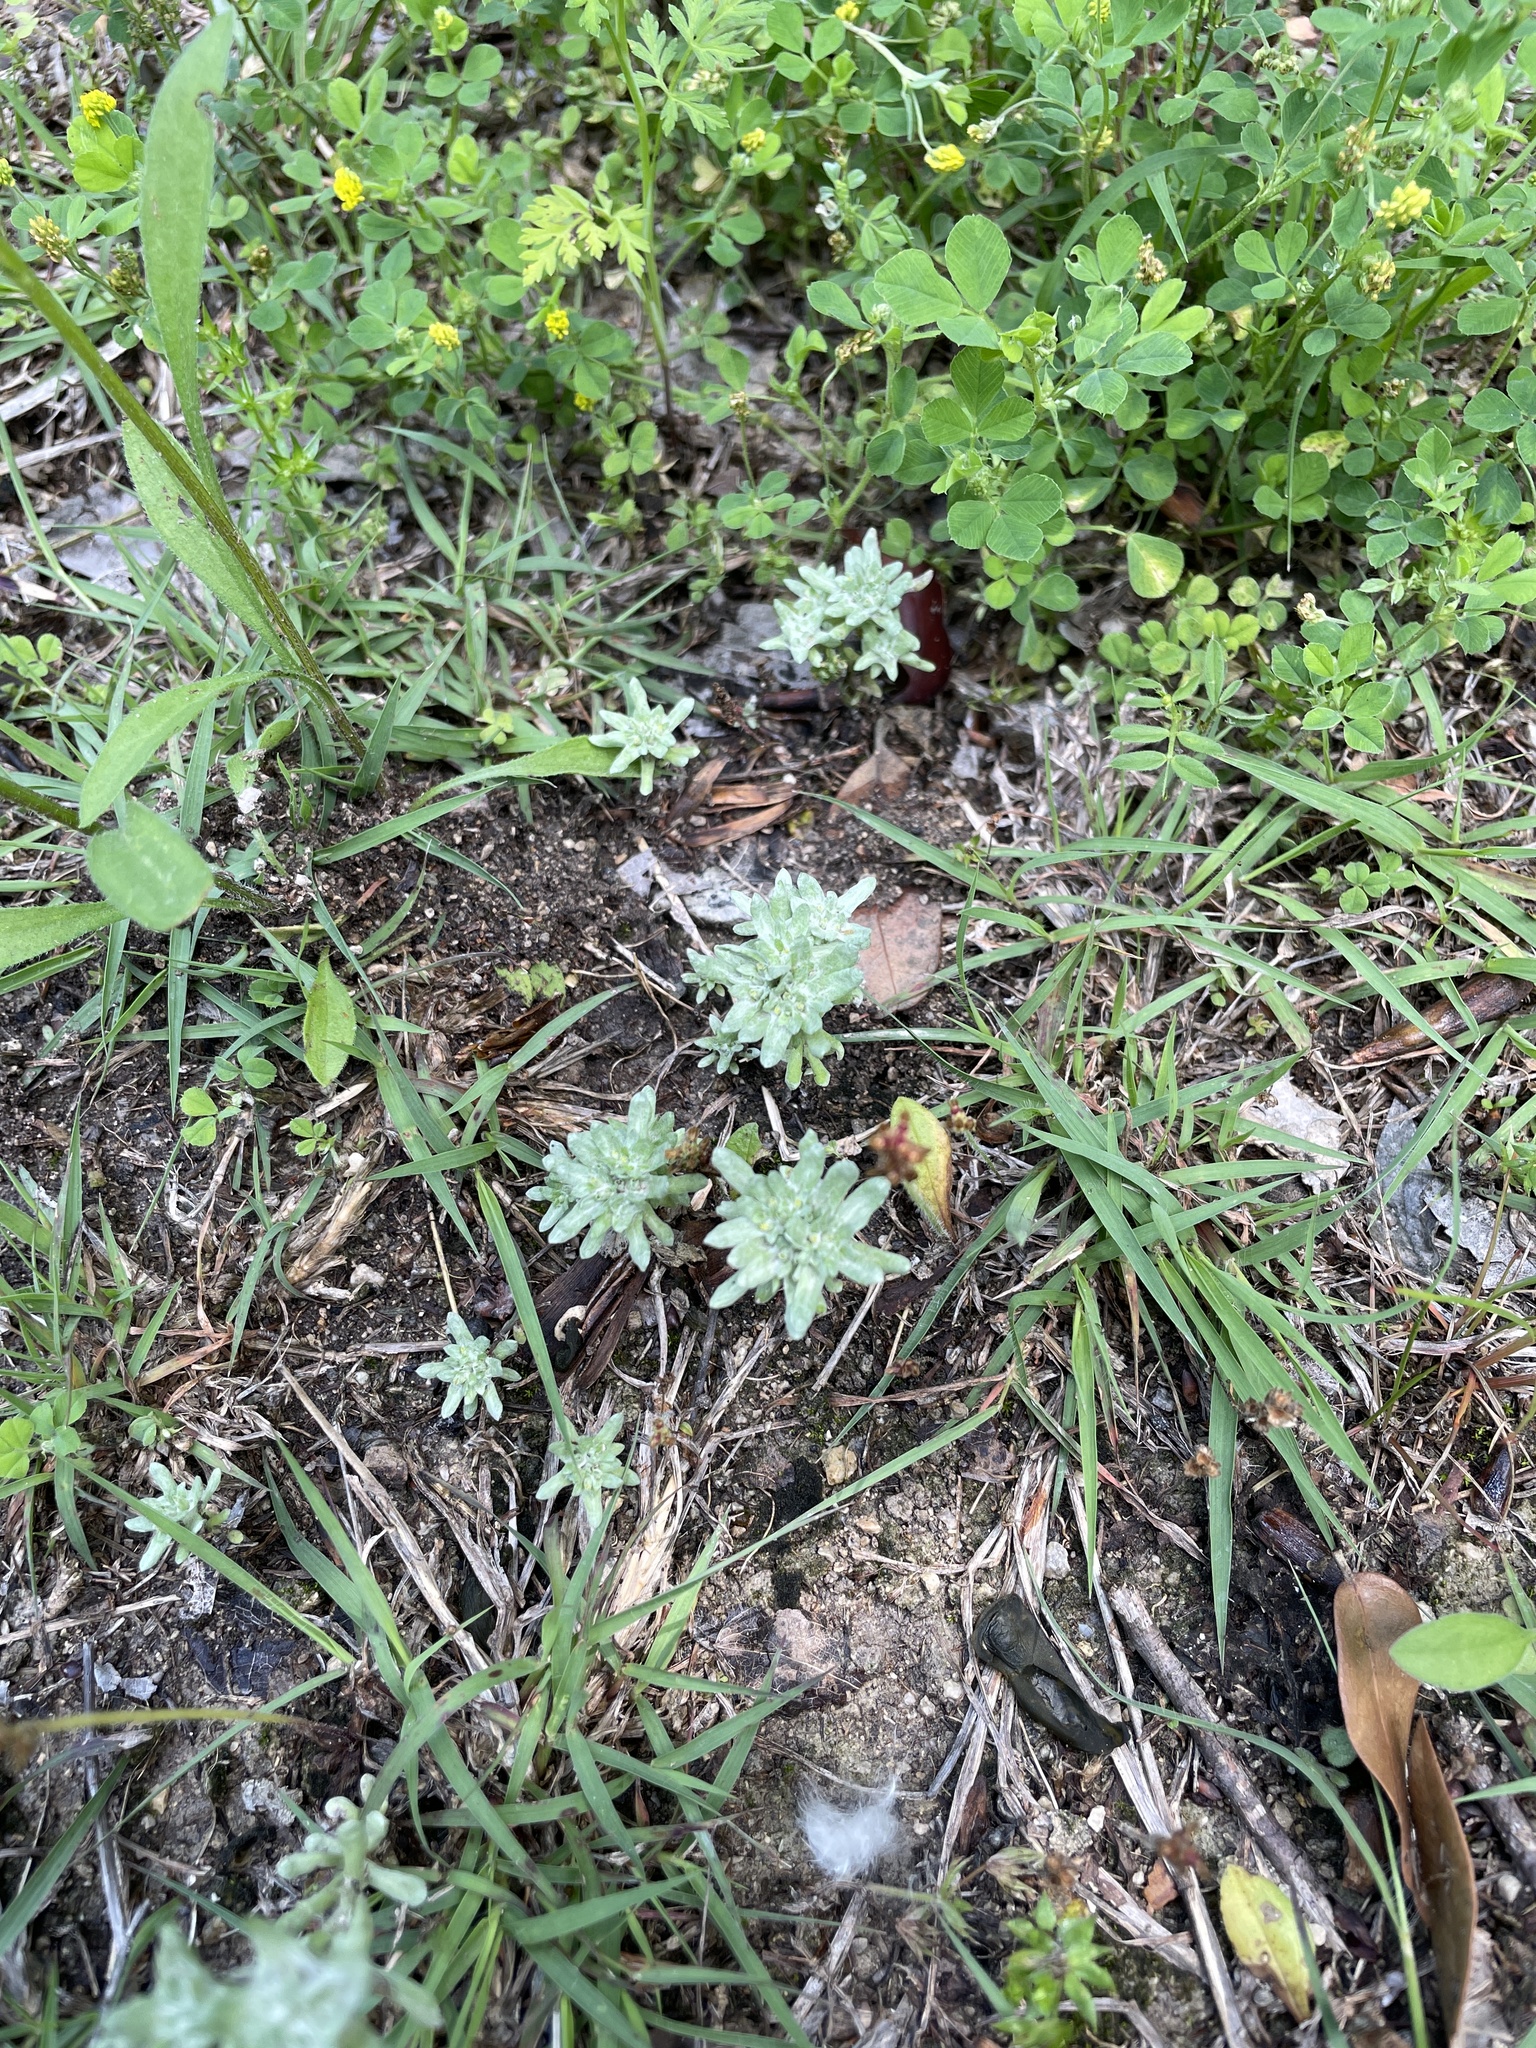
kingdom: Plantae
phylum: Tracheophyta
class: Magnoliopsida
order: Asterales
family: Asteraceae
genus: Diaperia
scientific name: Diaperia prolifera
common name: Big-head rabbit-tobacco
